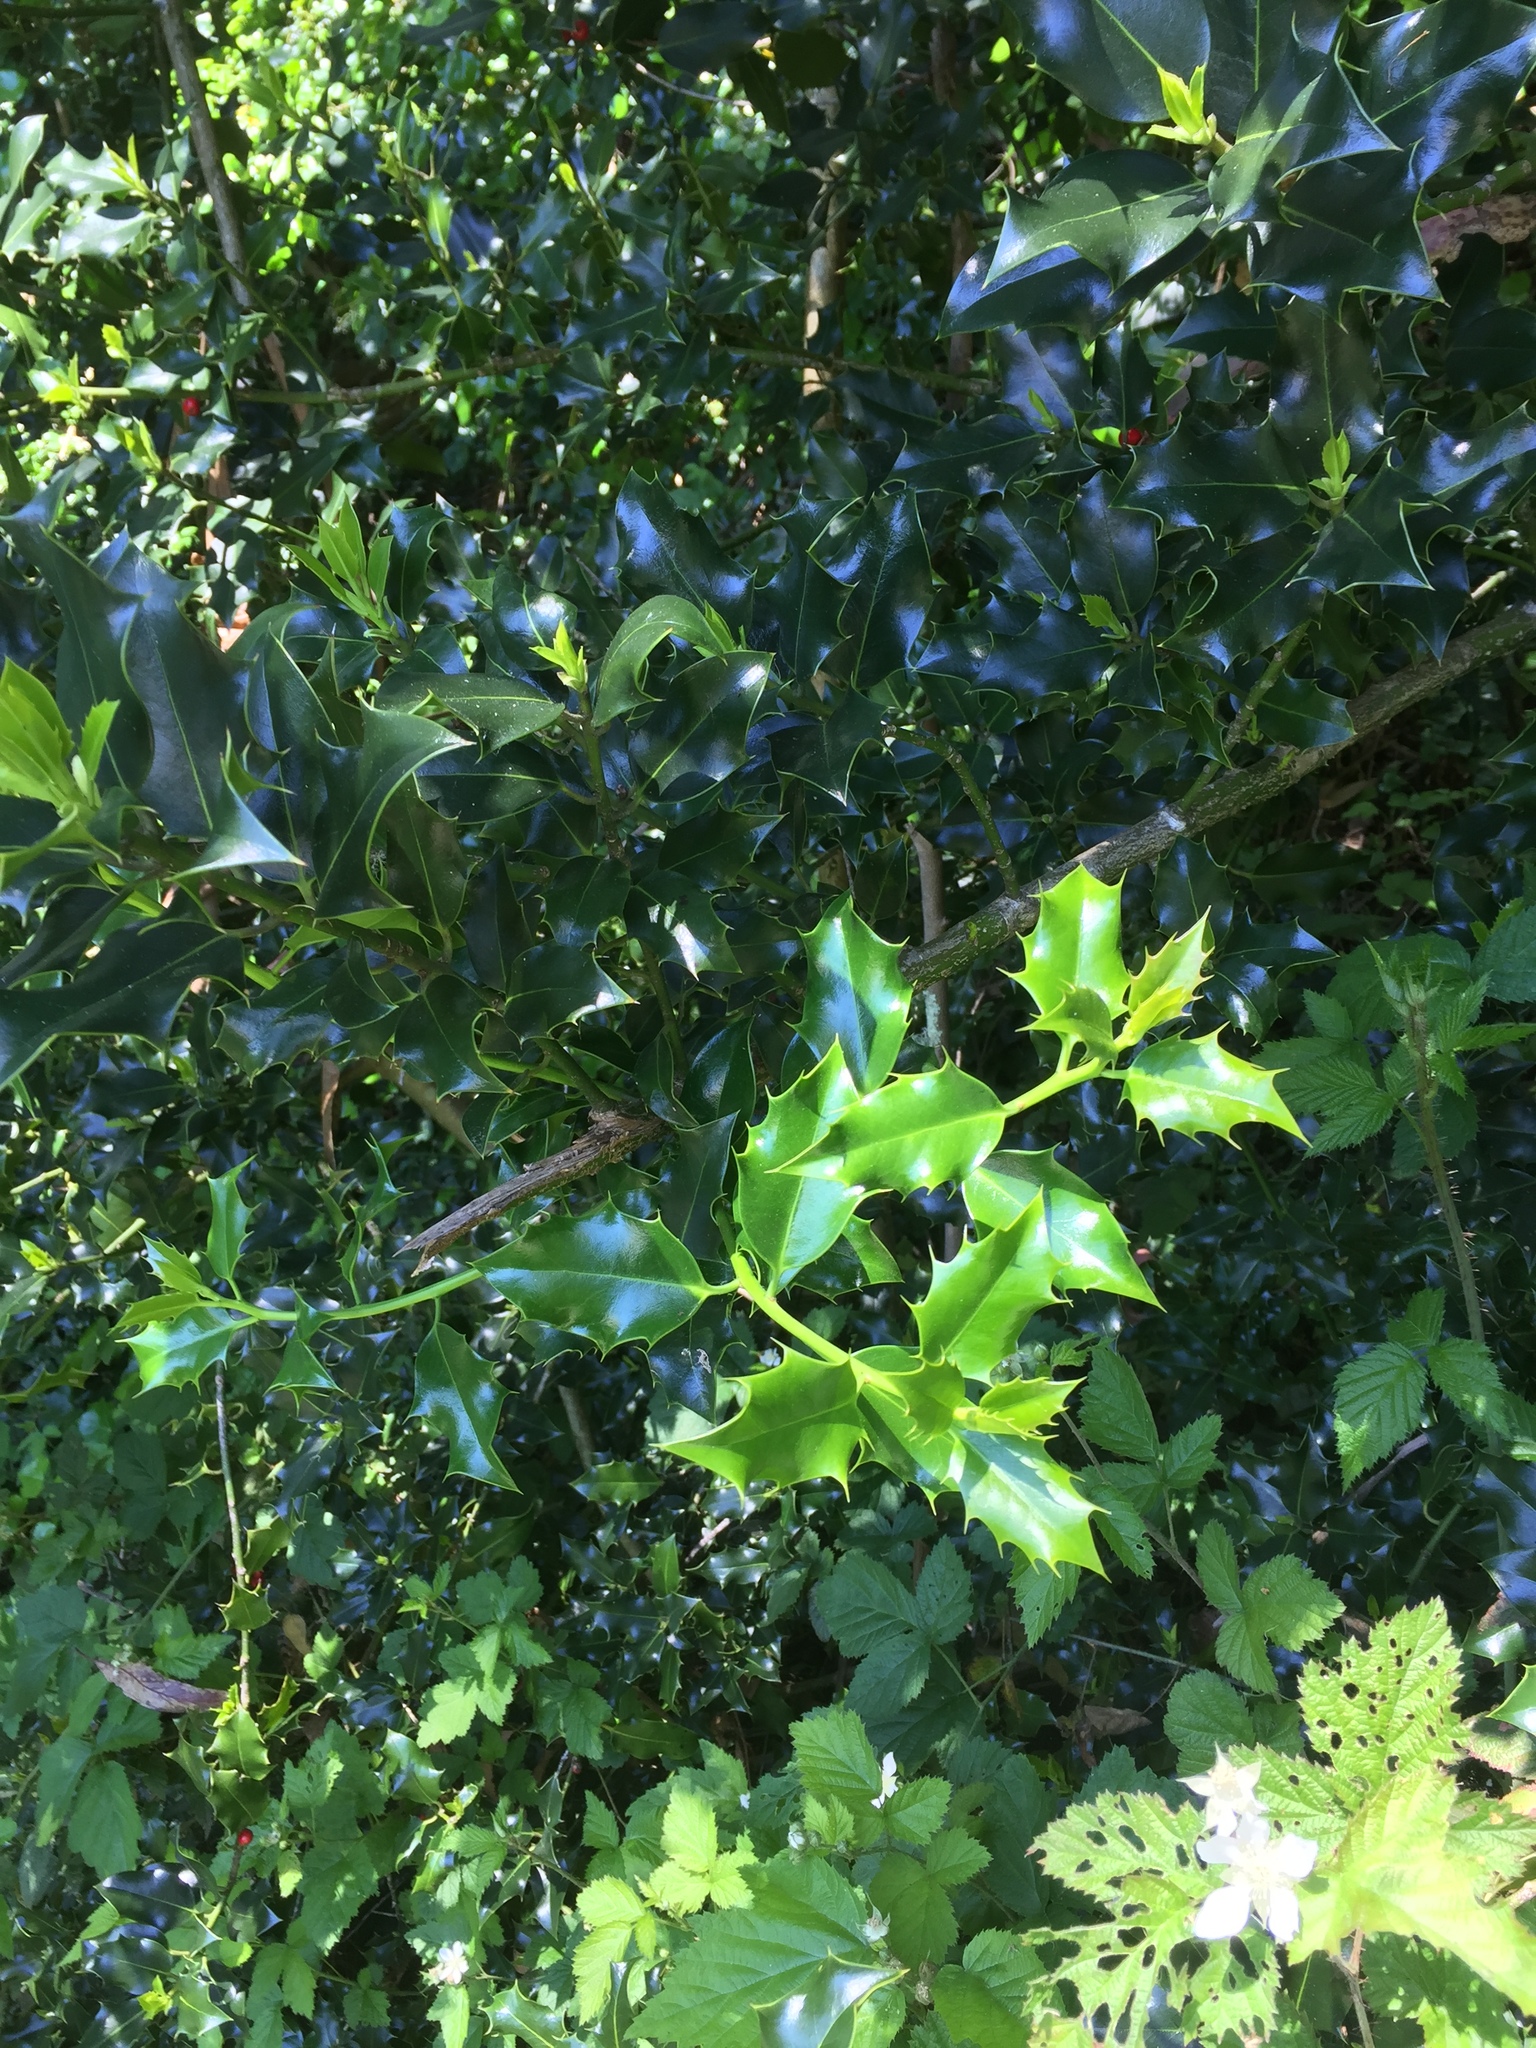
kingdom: Plantae
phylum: Tracheophyta
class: Magnoliopsida
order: Aquifoliales
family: Aquifoliaceae
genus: Ilex
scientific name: Ilex aquifolium
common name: English holly
